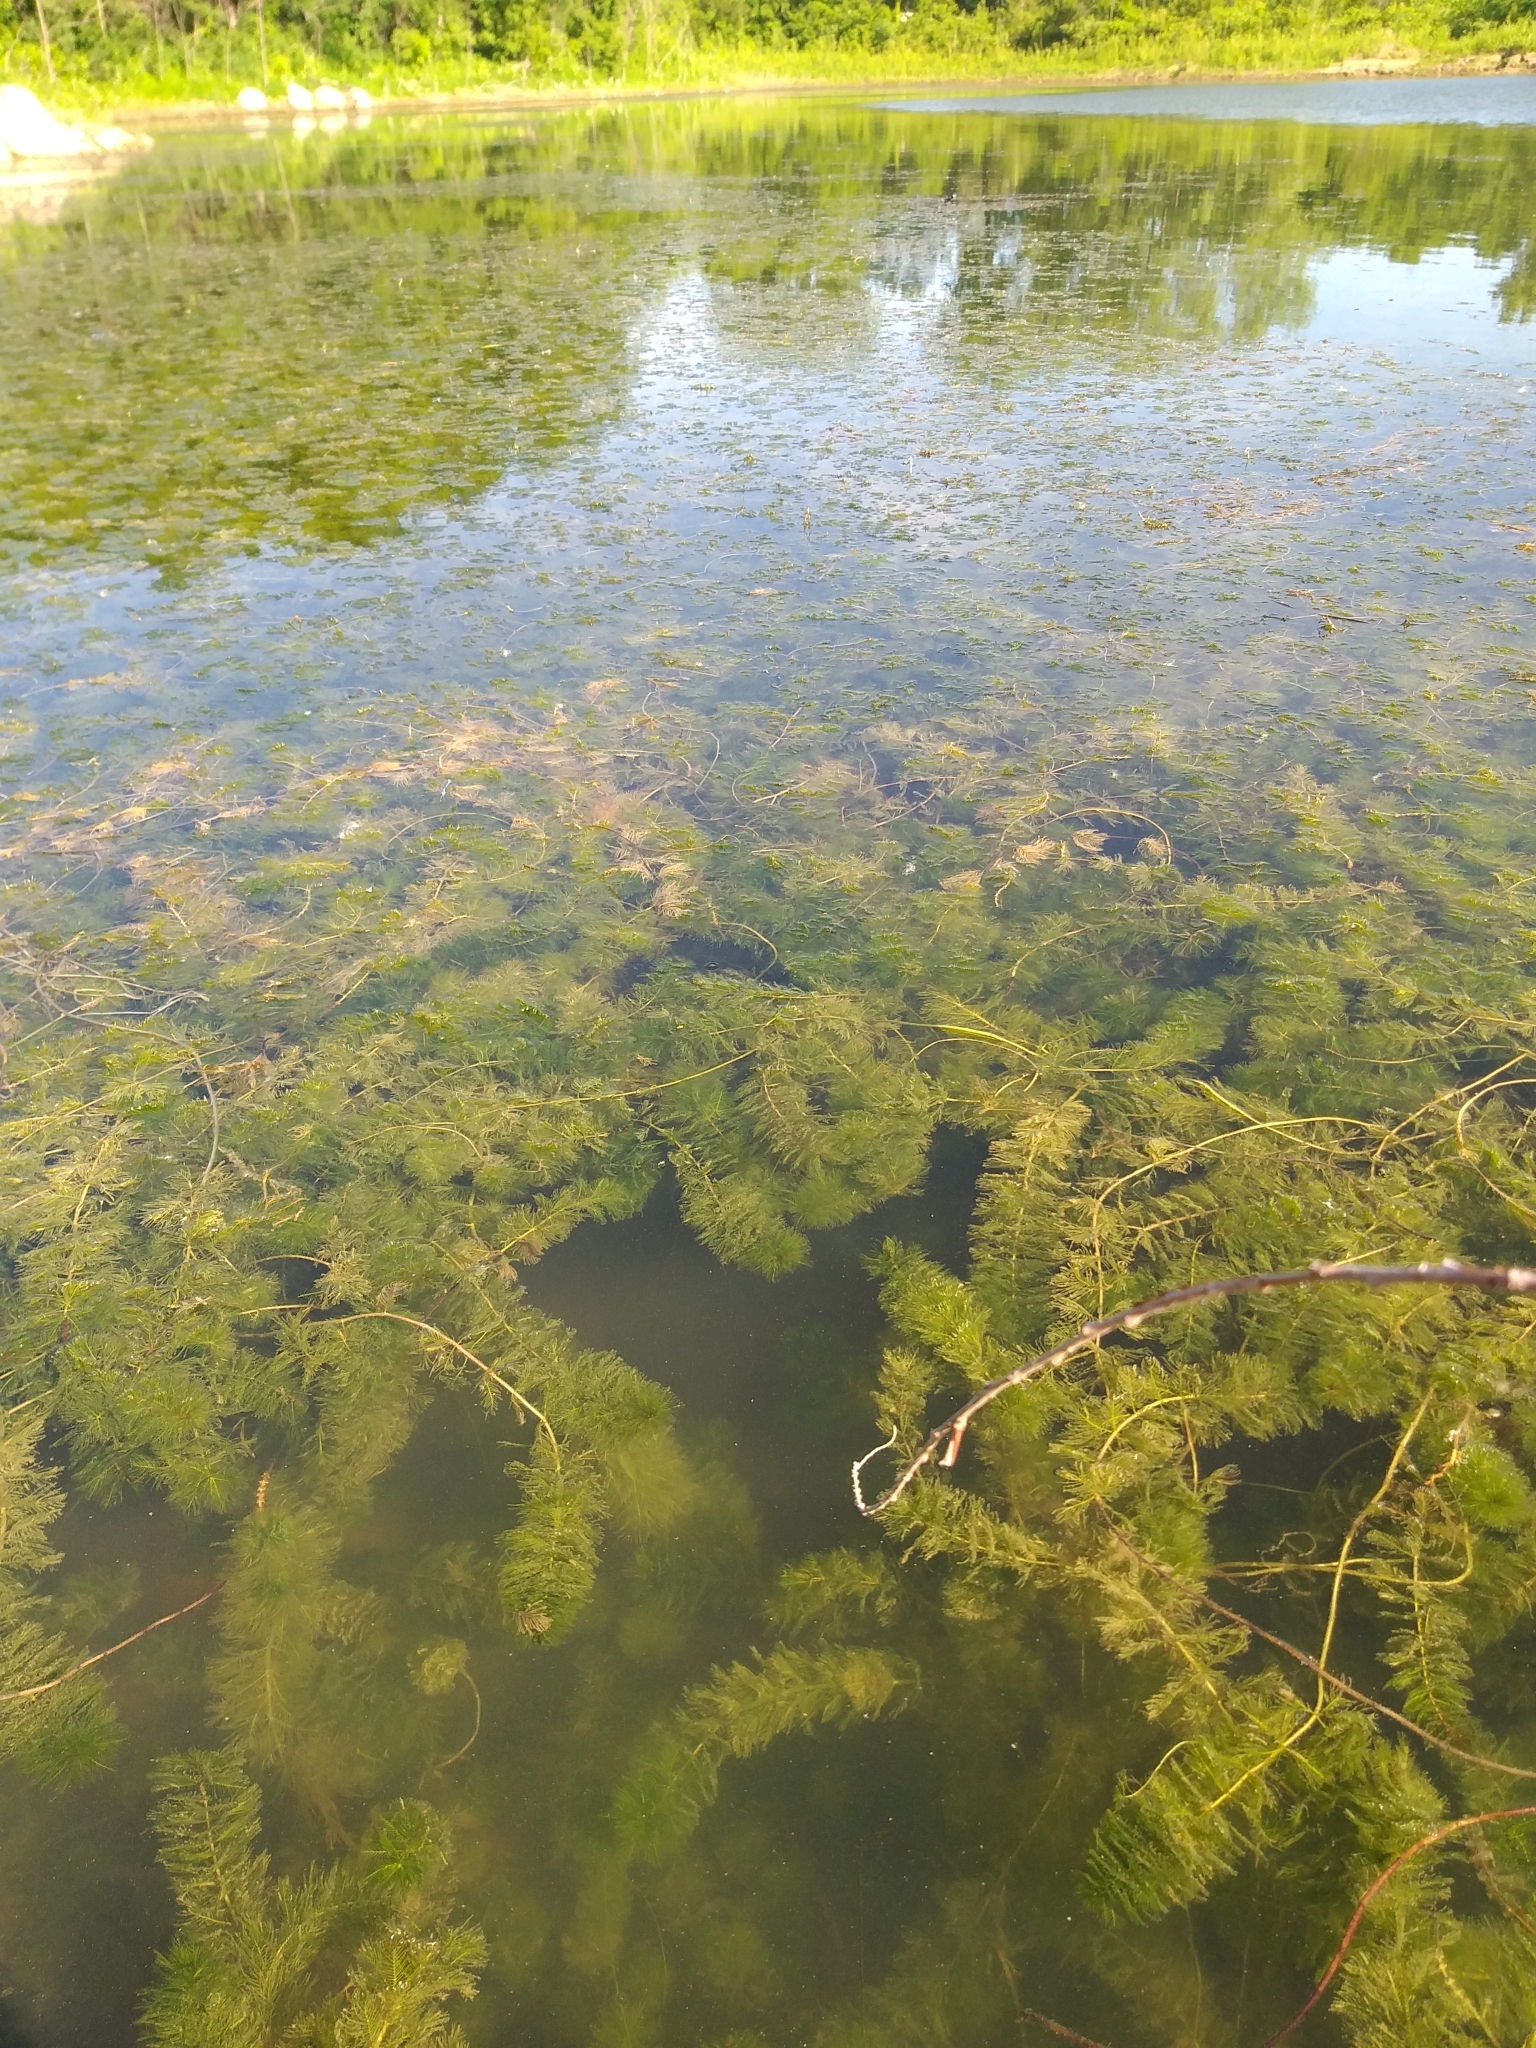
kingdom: Plantae
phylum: Tracheophyta
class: Magnoliopsida
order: Saxifragales
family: Haloragaceae
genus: Myriophyllum
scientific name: Myriophyllum spicatum
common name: Spiked water-milfoil
